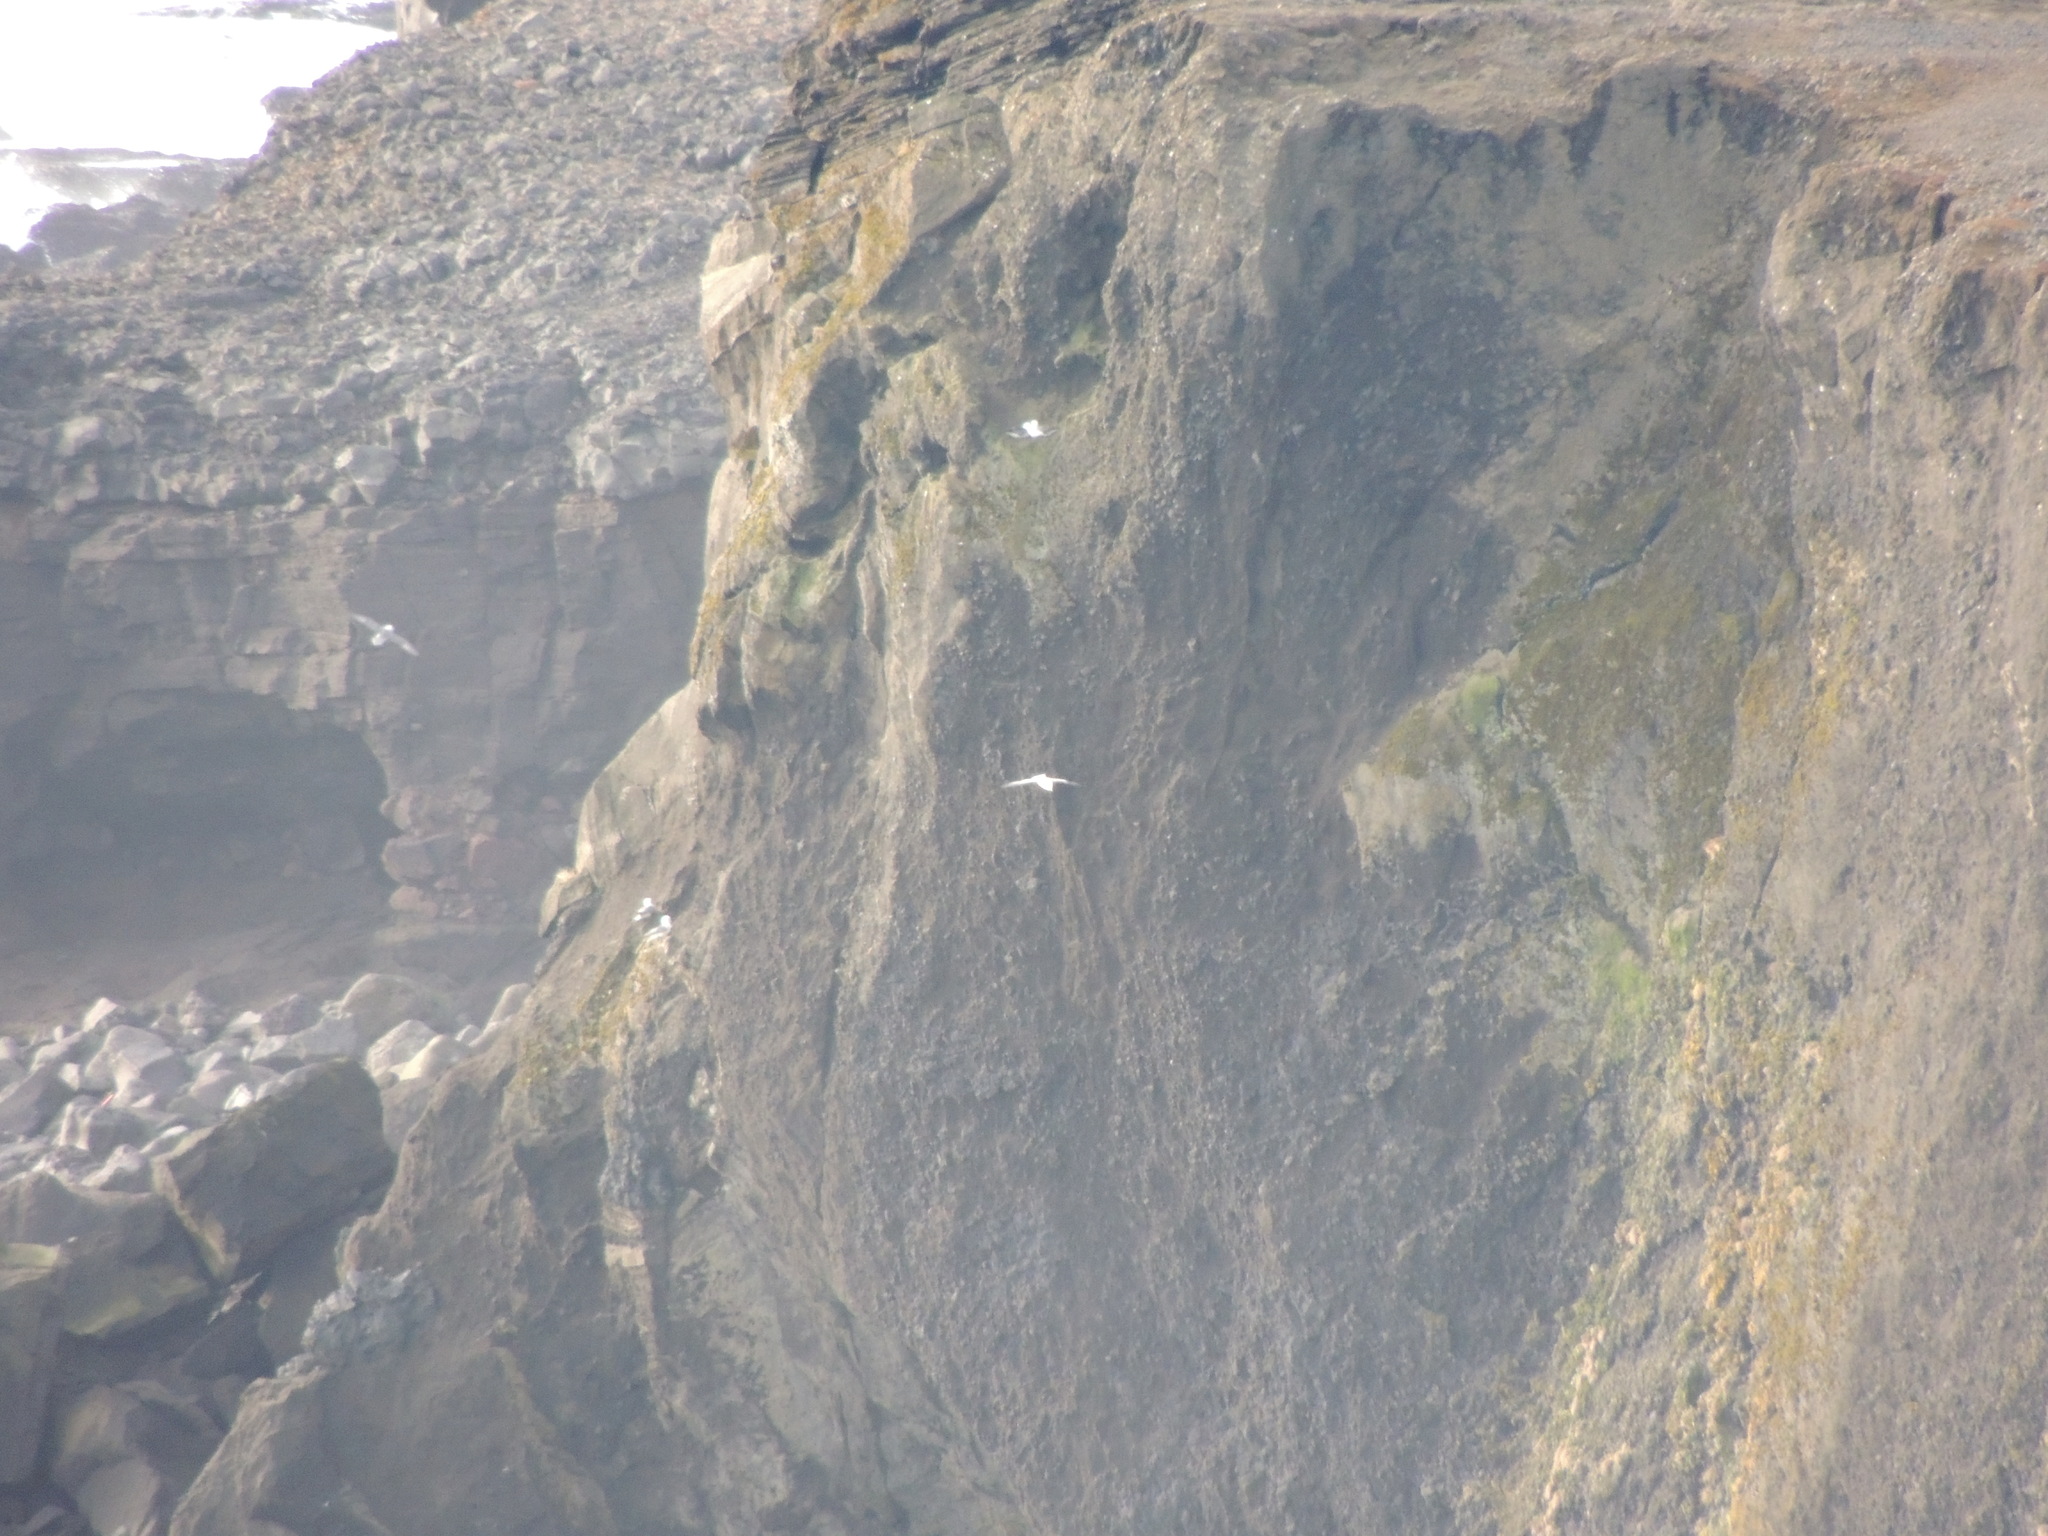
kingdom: Animalia
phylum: Chordata
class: Aves
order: Procellariiformes
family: Procellariidae
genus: Fulmarus
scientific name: Fulmarus glacialis
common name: Northern fulmar
